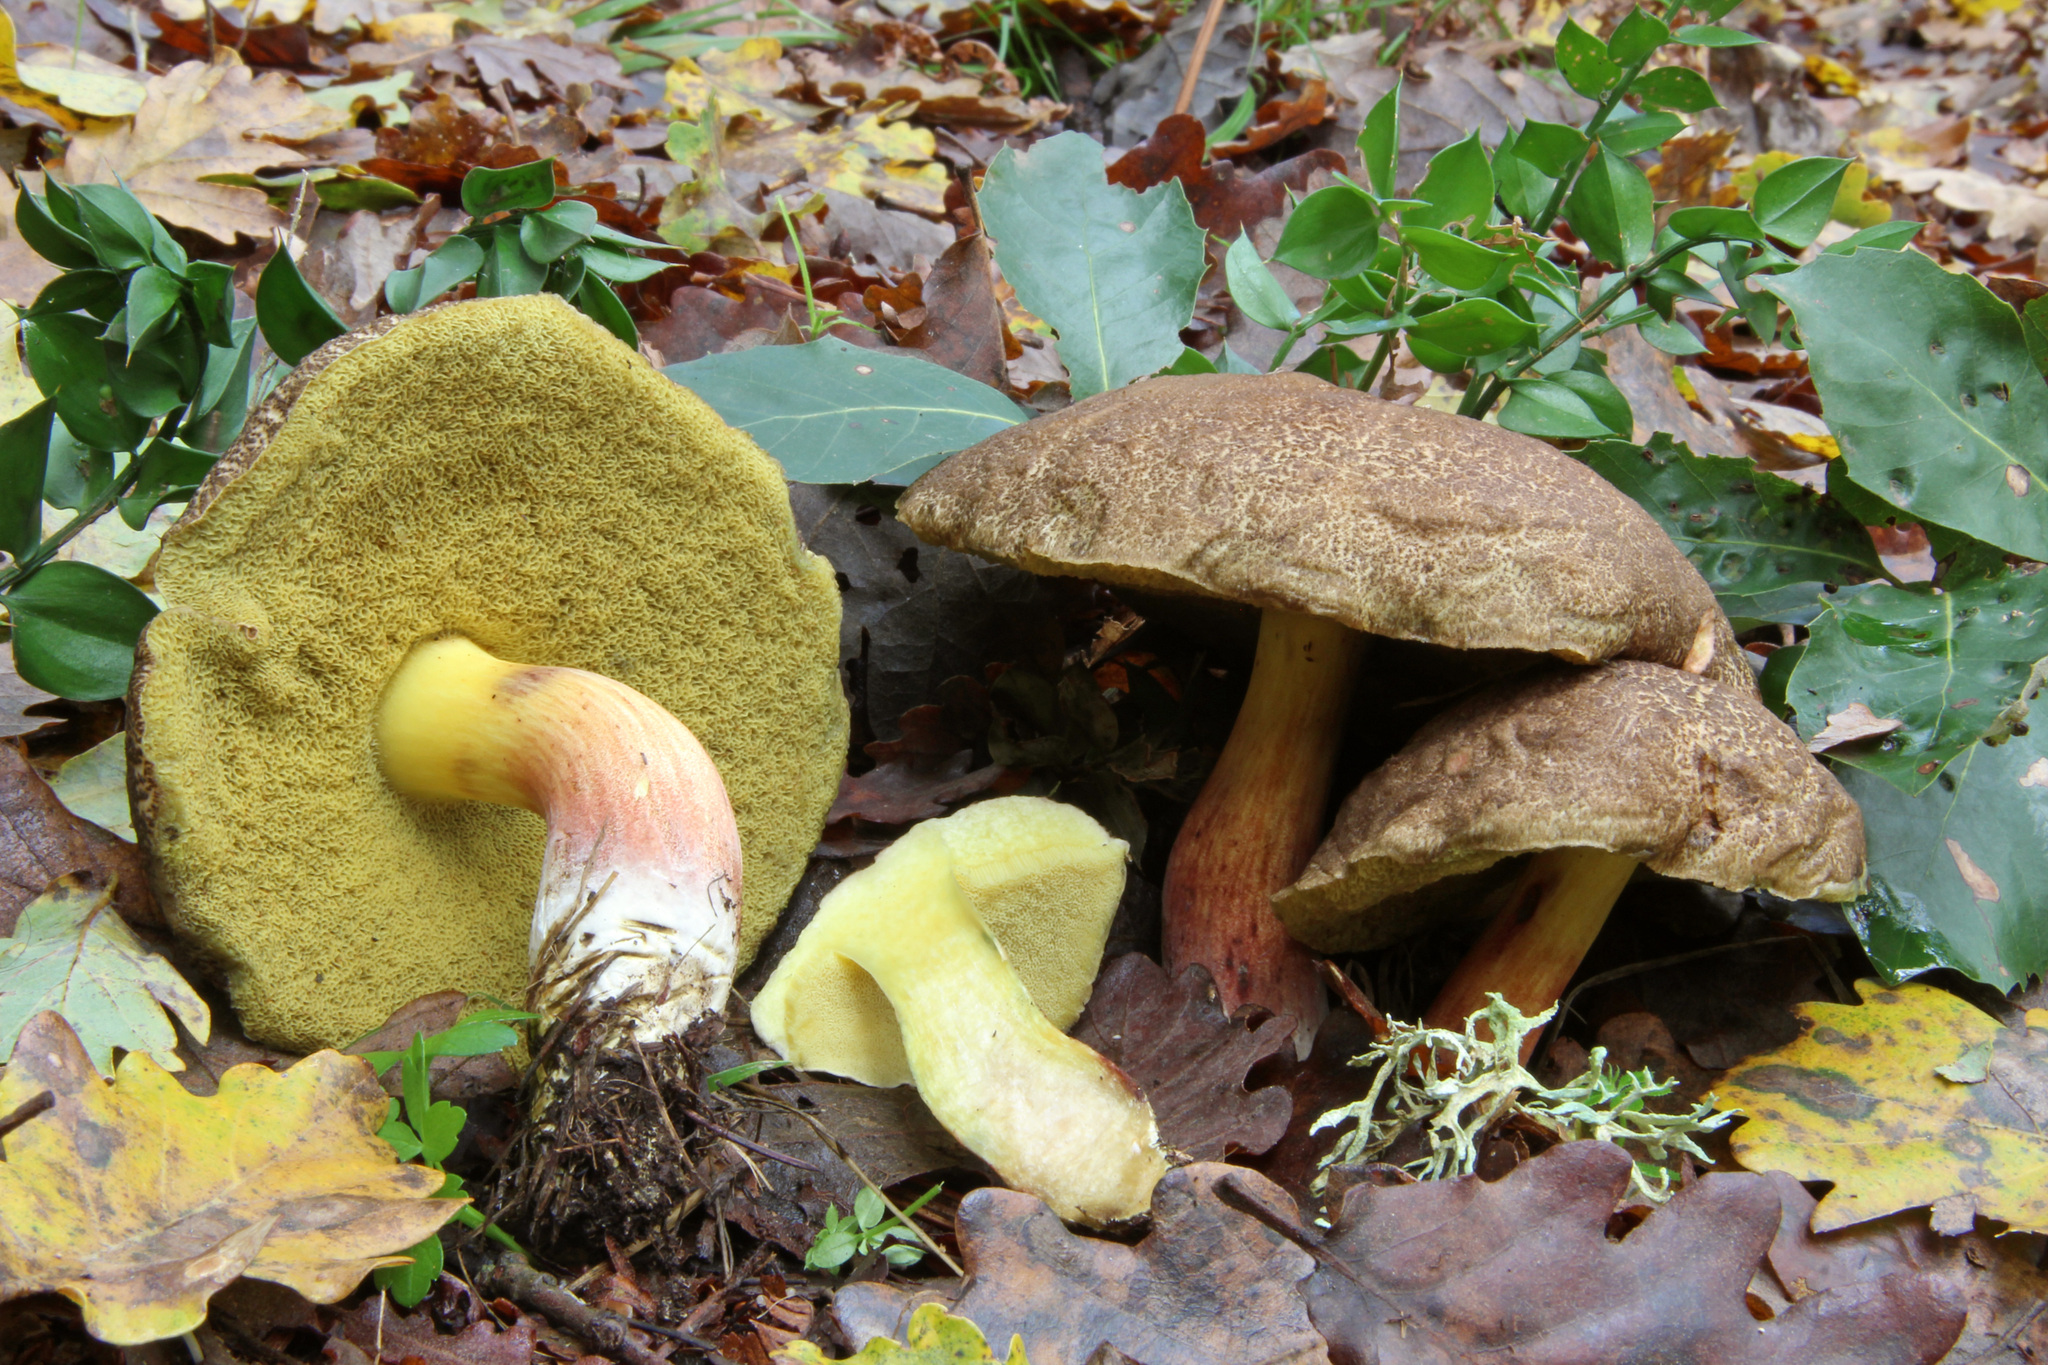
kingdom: Fungi
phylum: Basidiomycota
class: Agaricomycetes
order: Boletales
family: Boletaceae
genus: Xerocomellus
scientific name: Xerocomellus cisalpinus
